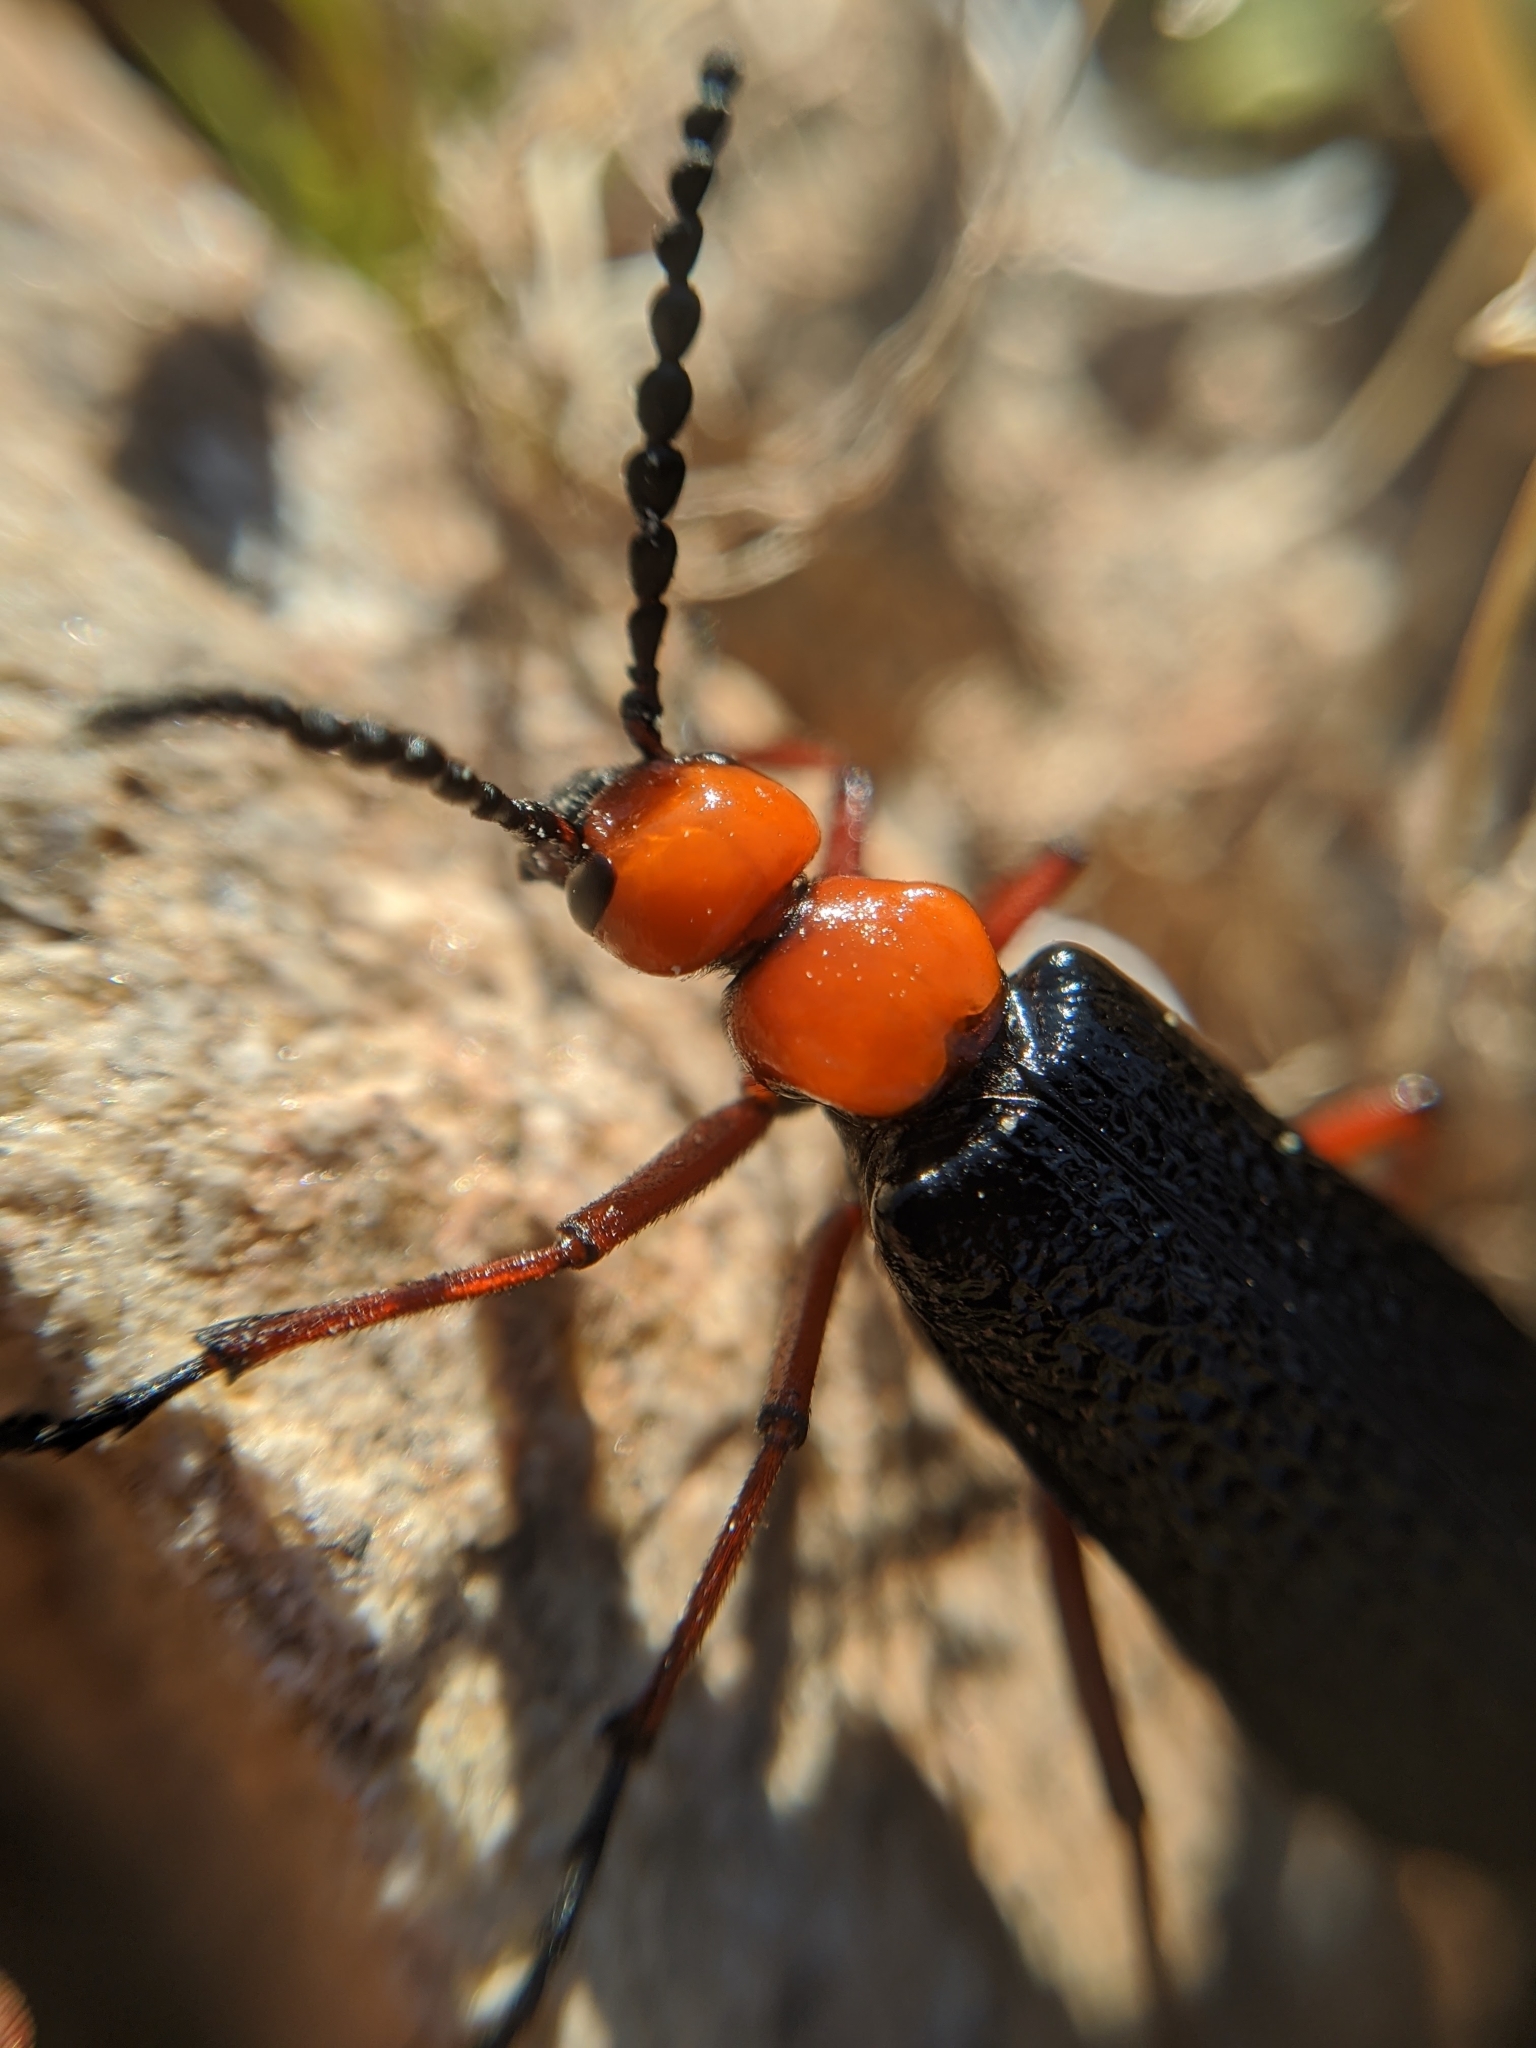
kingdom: Animalia
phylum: Arthropoda
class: Insecta
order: Coleoptera
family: Meloidae
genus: Lytta
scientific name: Lytta magister
